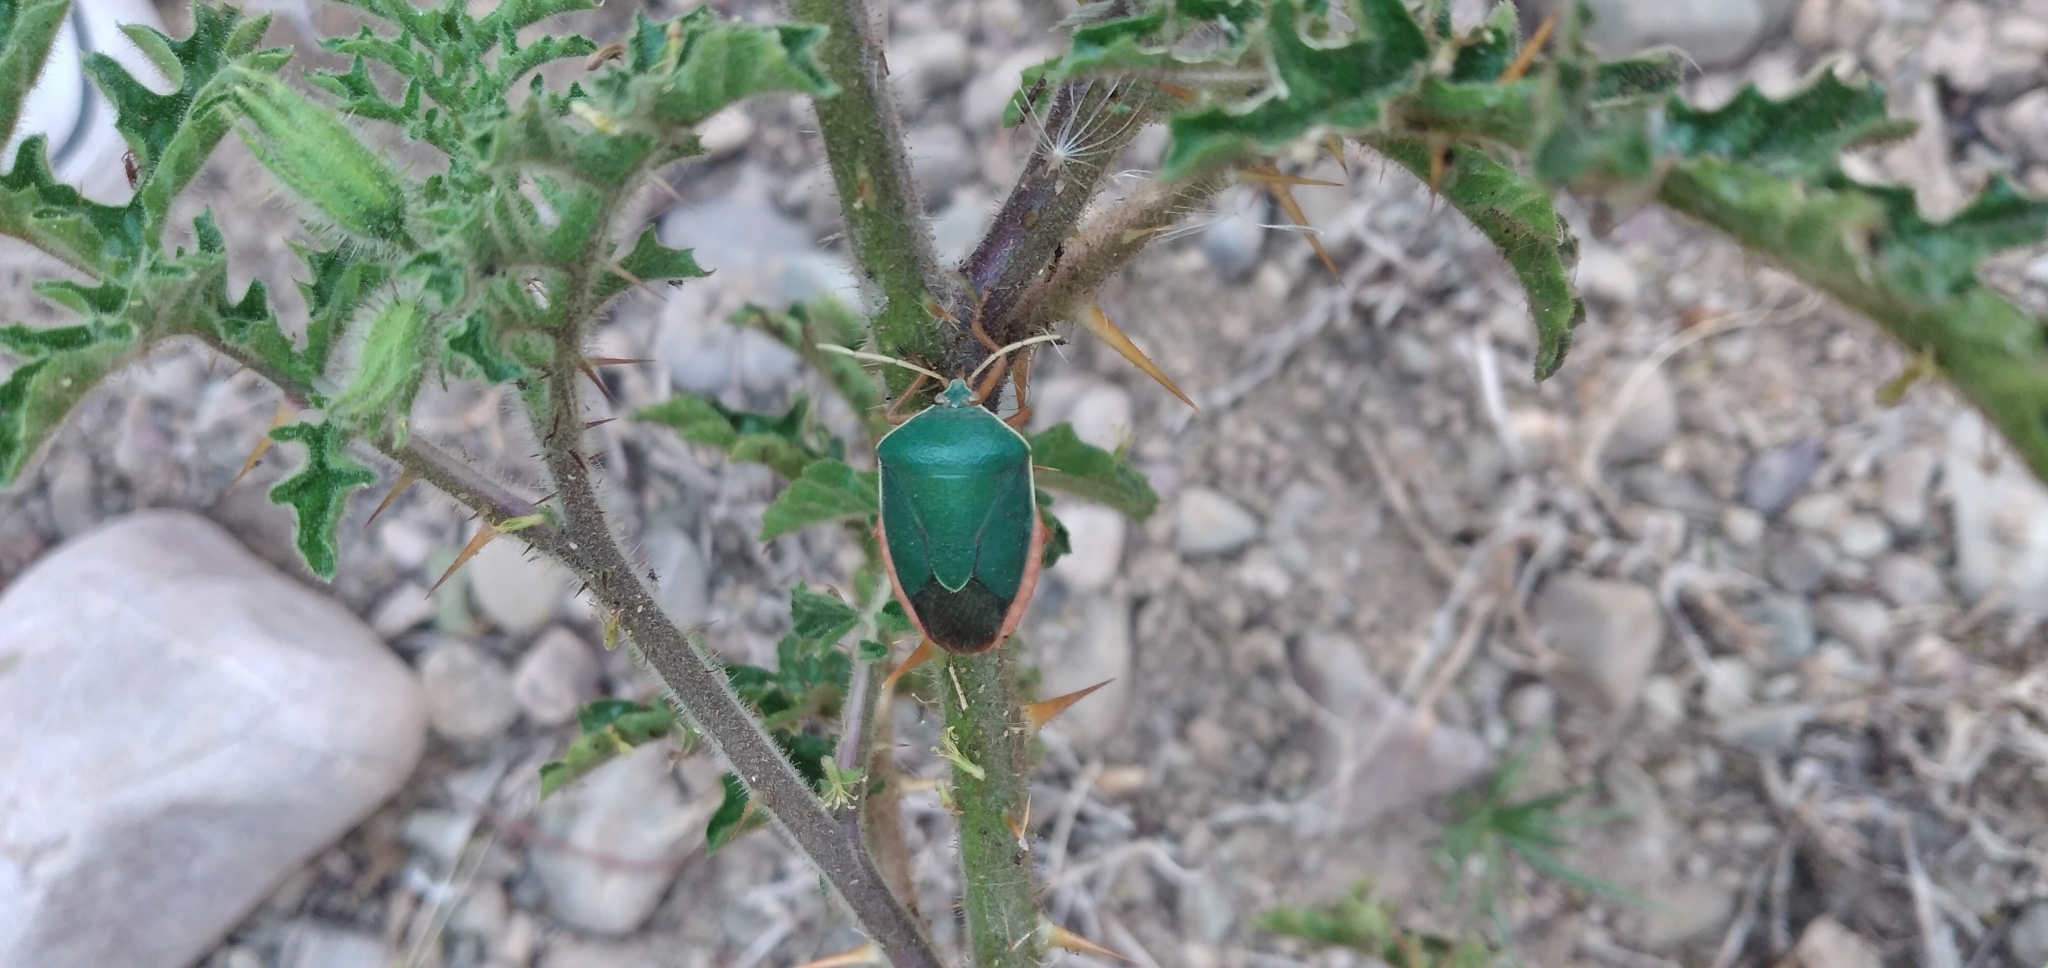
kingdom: Animalia
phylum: Arthropoda
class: Insecta
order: Hemiptera
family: Pentatomidae
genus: Edessa
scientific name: Edessa
